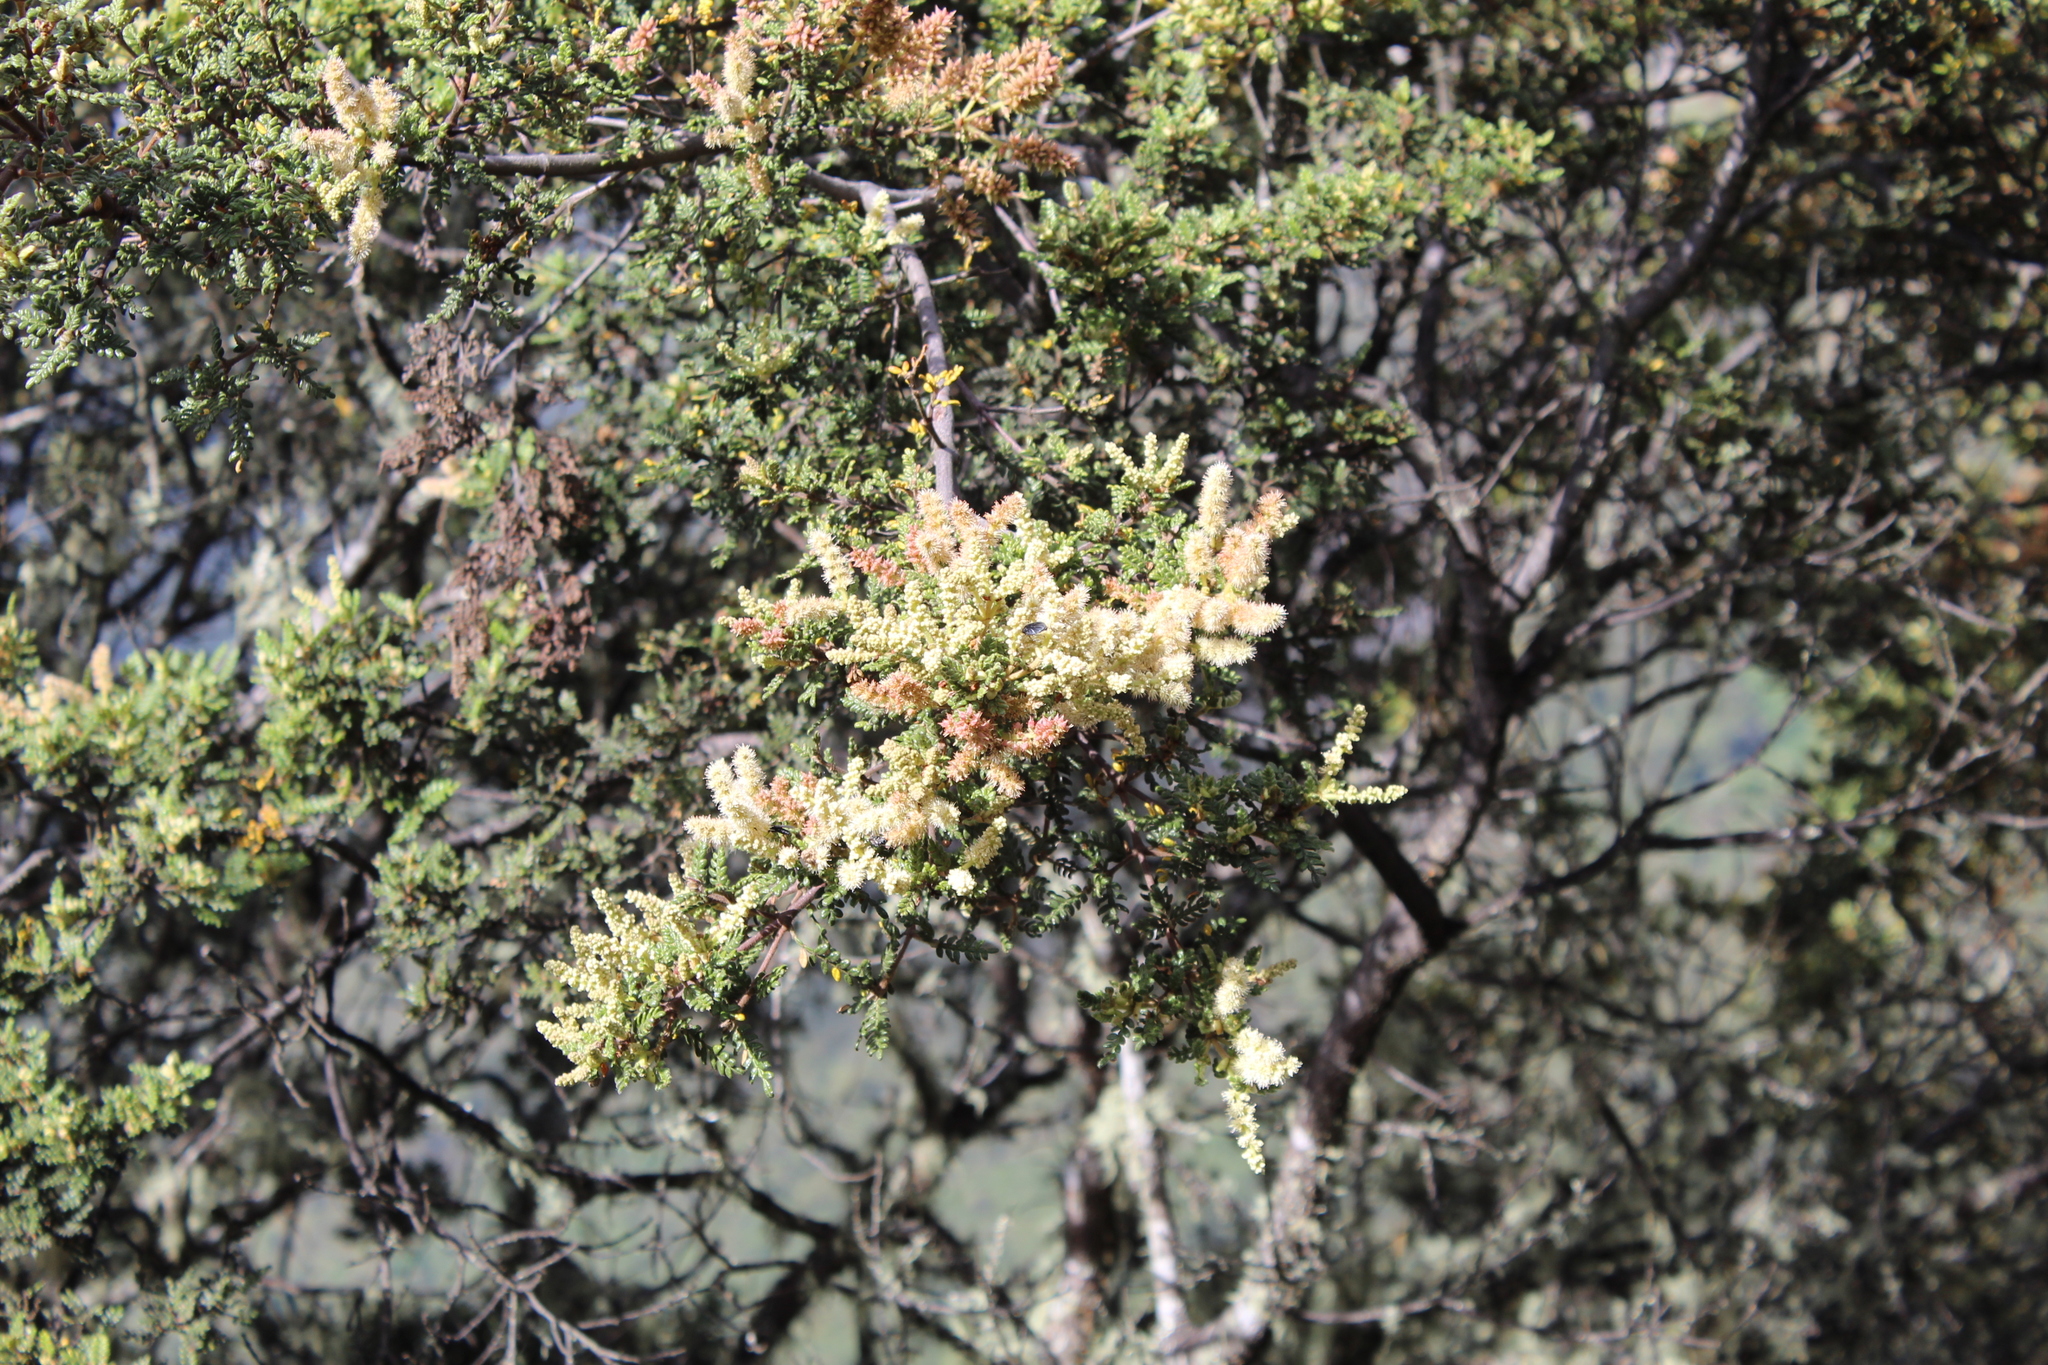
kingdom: Plantae
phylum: Tracheophyta
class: Magnoliopsida
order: Oxalidales
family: Cunoniaceae
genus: Weinmannia
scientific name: Weinmannia tomentosa
